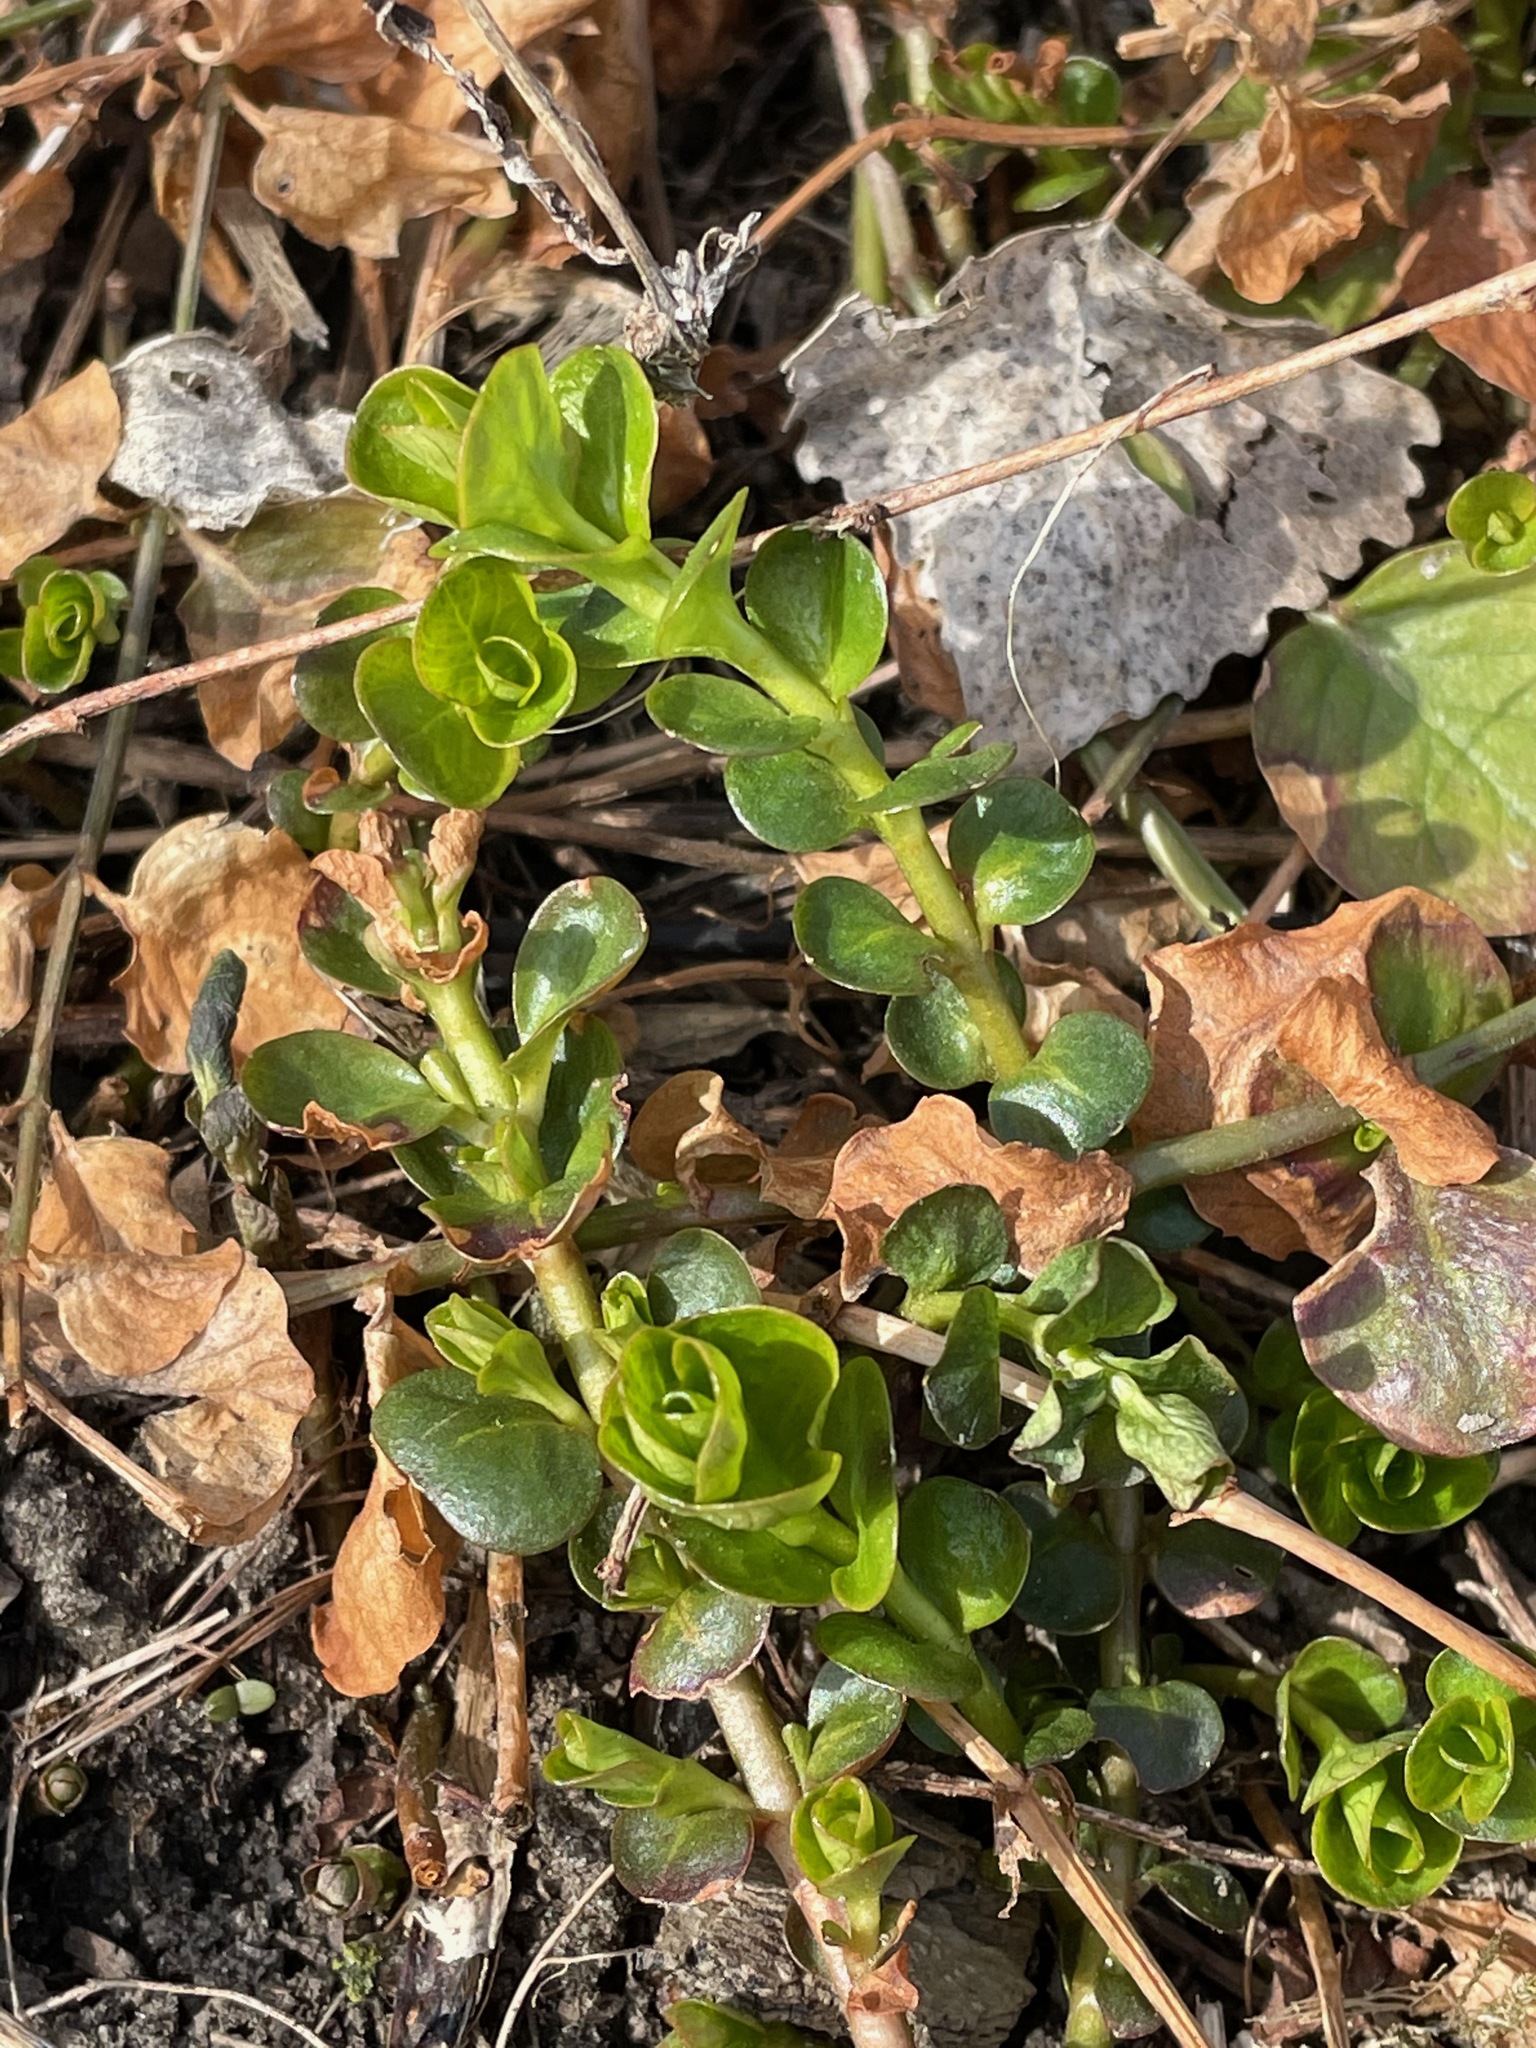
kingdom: Plantae
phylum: Tracheophyta
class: Magnoliopsida
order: Ericales
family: Primulaceae
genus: Lysimachia
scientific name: Lysimachia nummularia
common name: Moneywort
